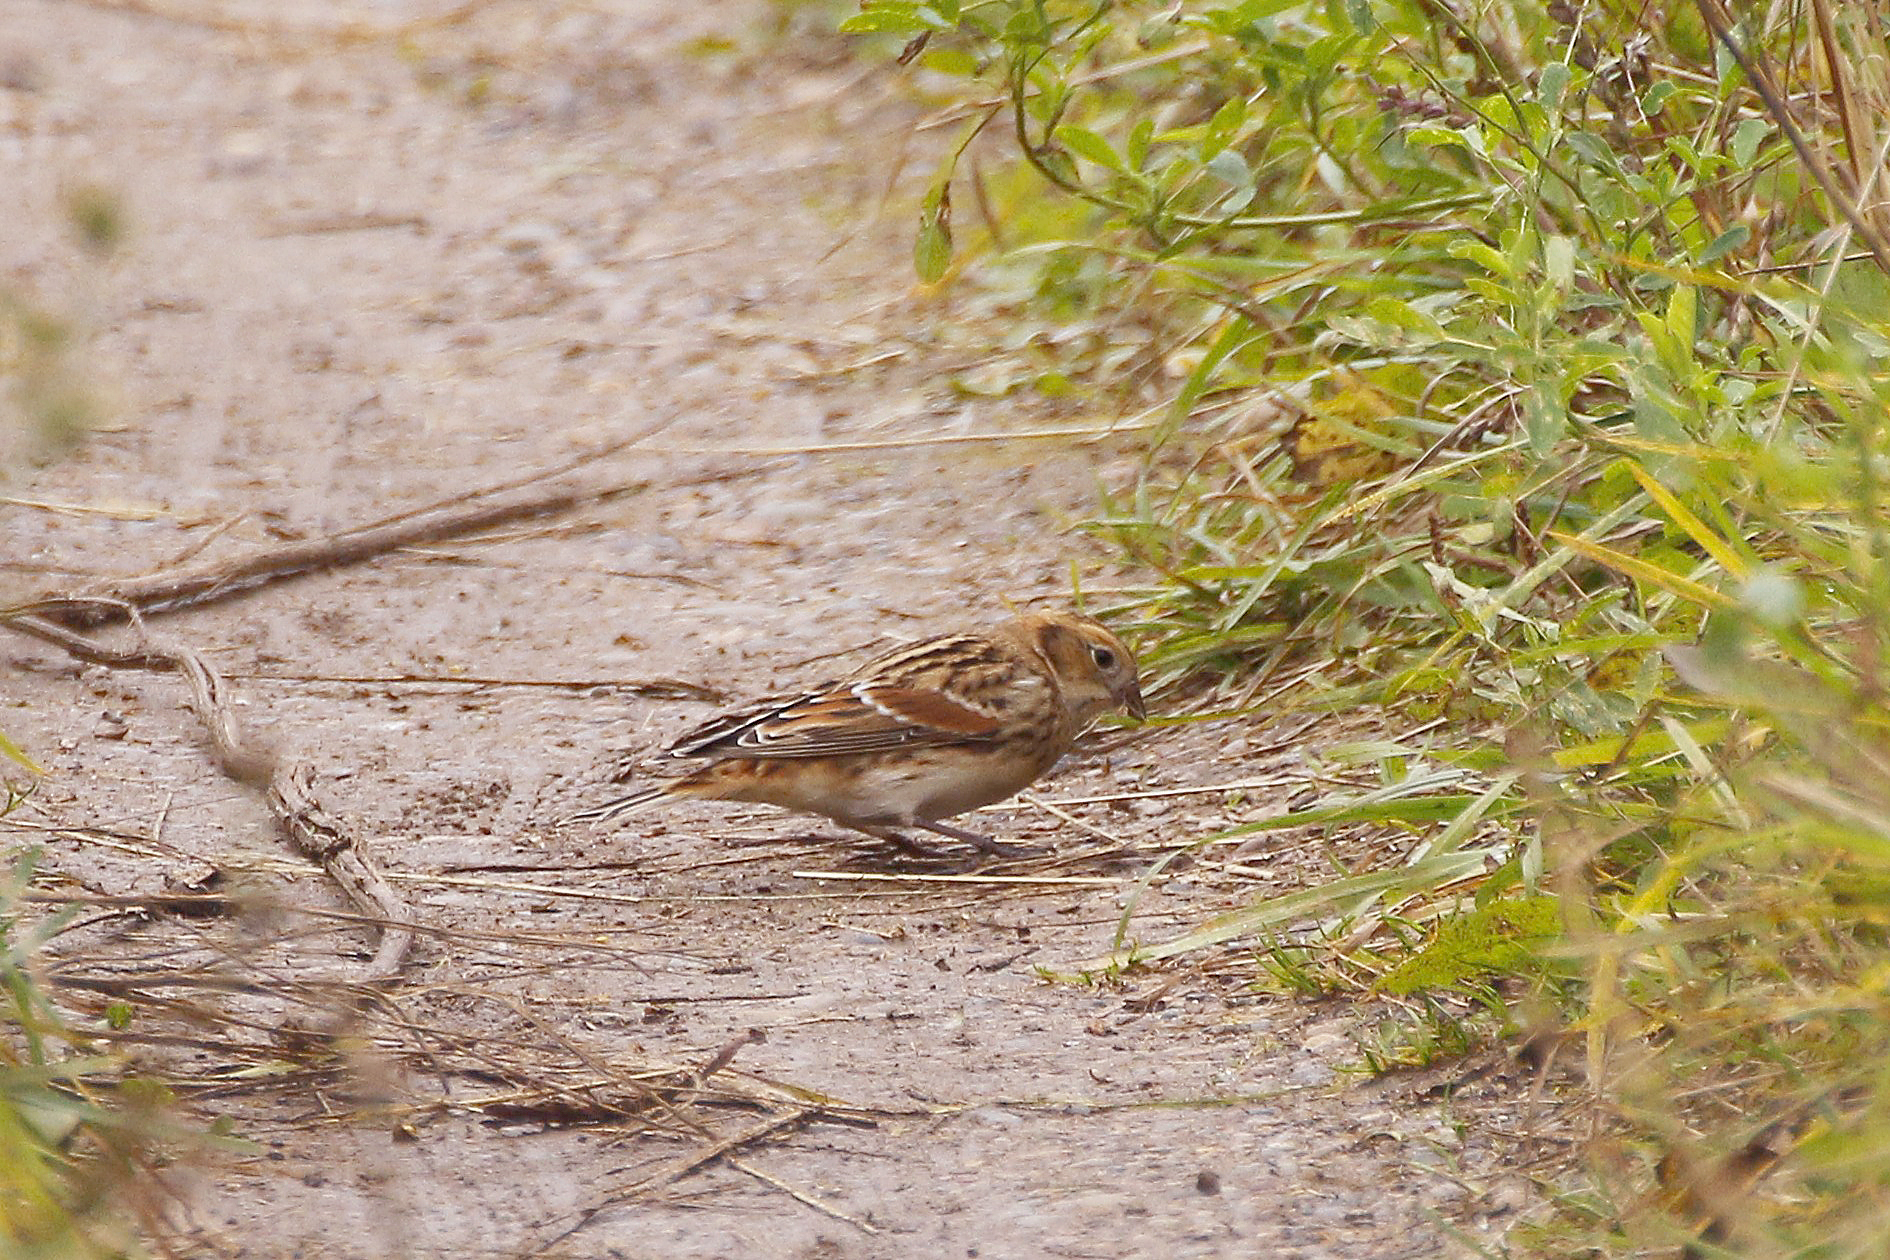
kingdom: Animalia
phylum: Chordata
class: Aves
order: Passeriformes
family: Calcariidae
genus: Calcarius
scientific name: Calcarius lapponicus
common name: Lapland longspur
